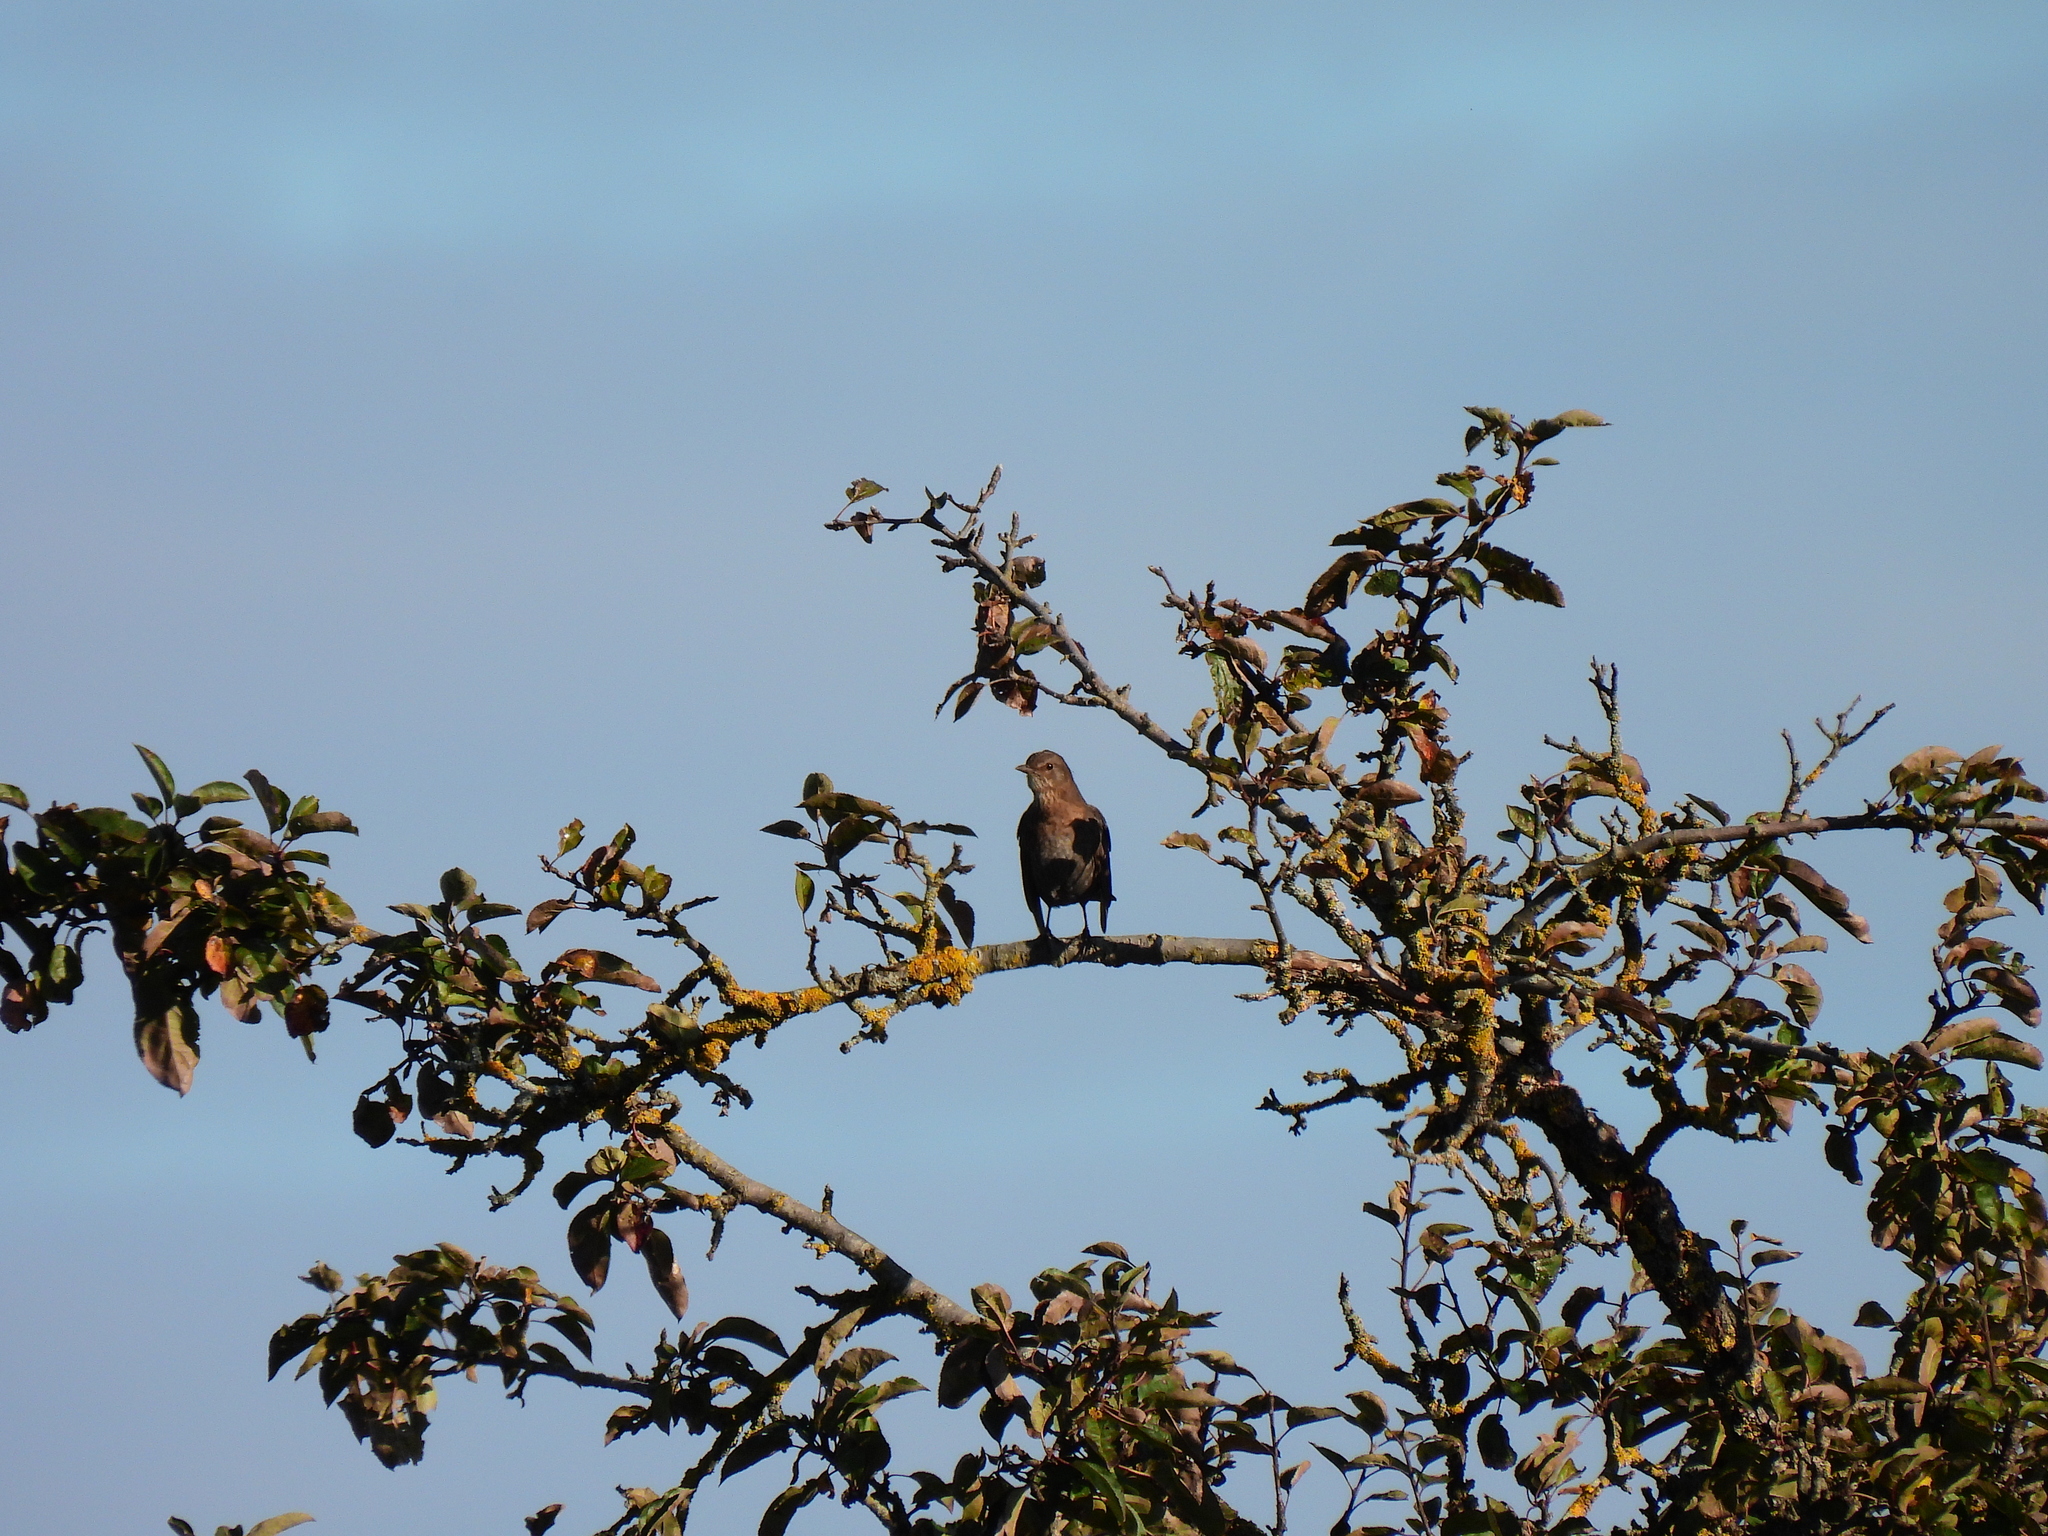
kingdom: Animalia
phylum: Chordata
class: Aves
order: Passeriformes
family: Turdidae
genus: Turdus
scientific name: Turdus merula
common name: Common blackbird
